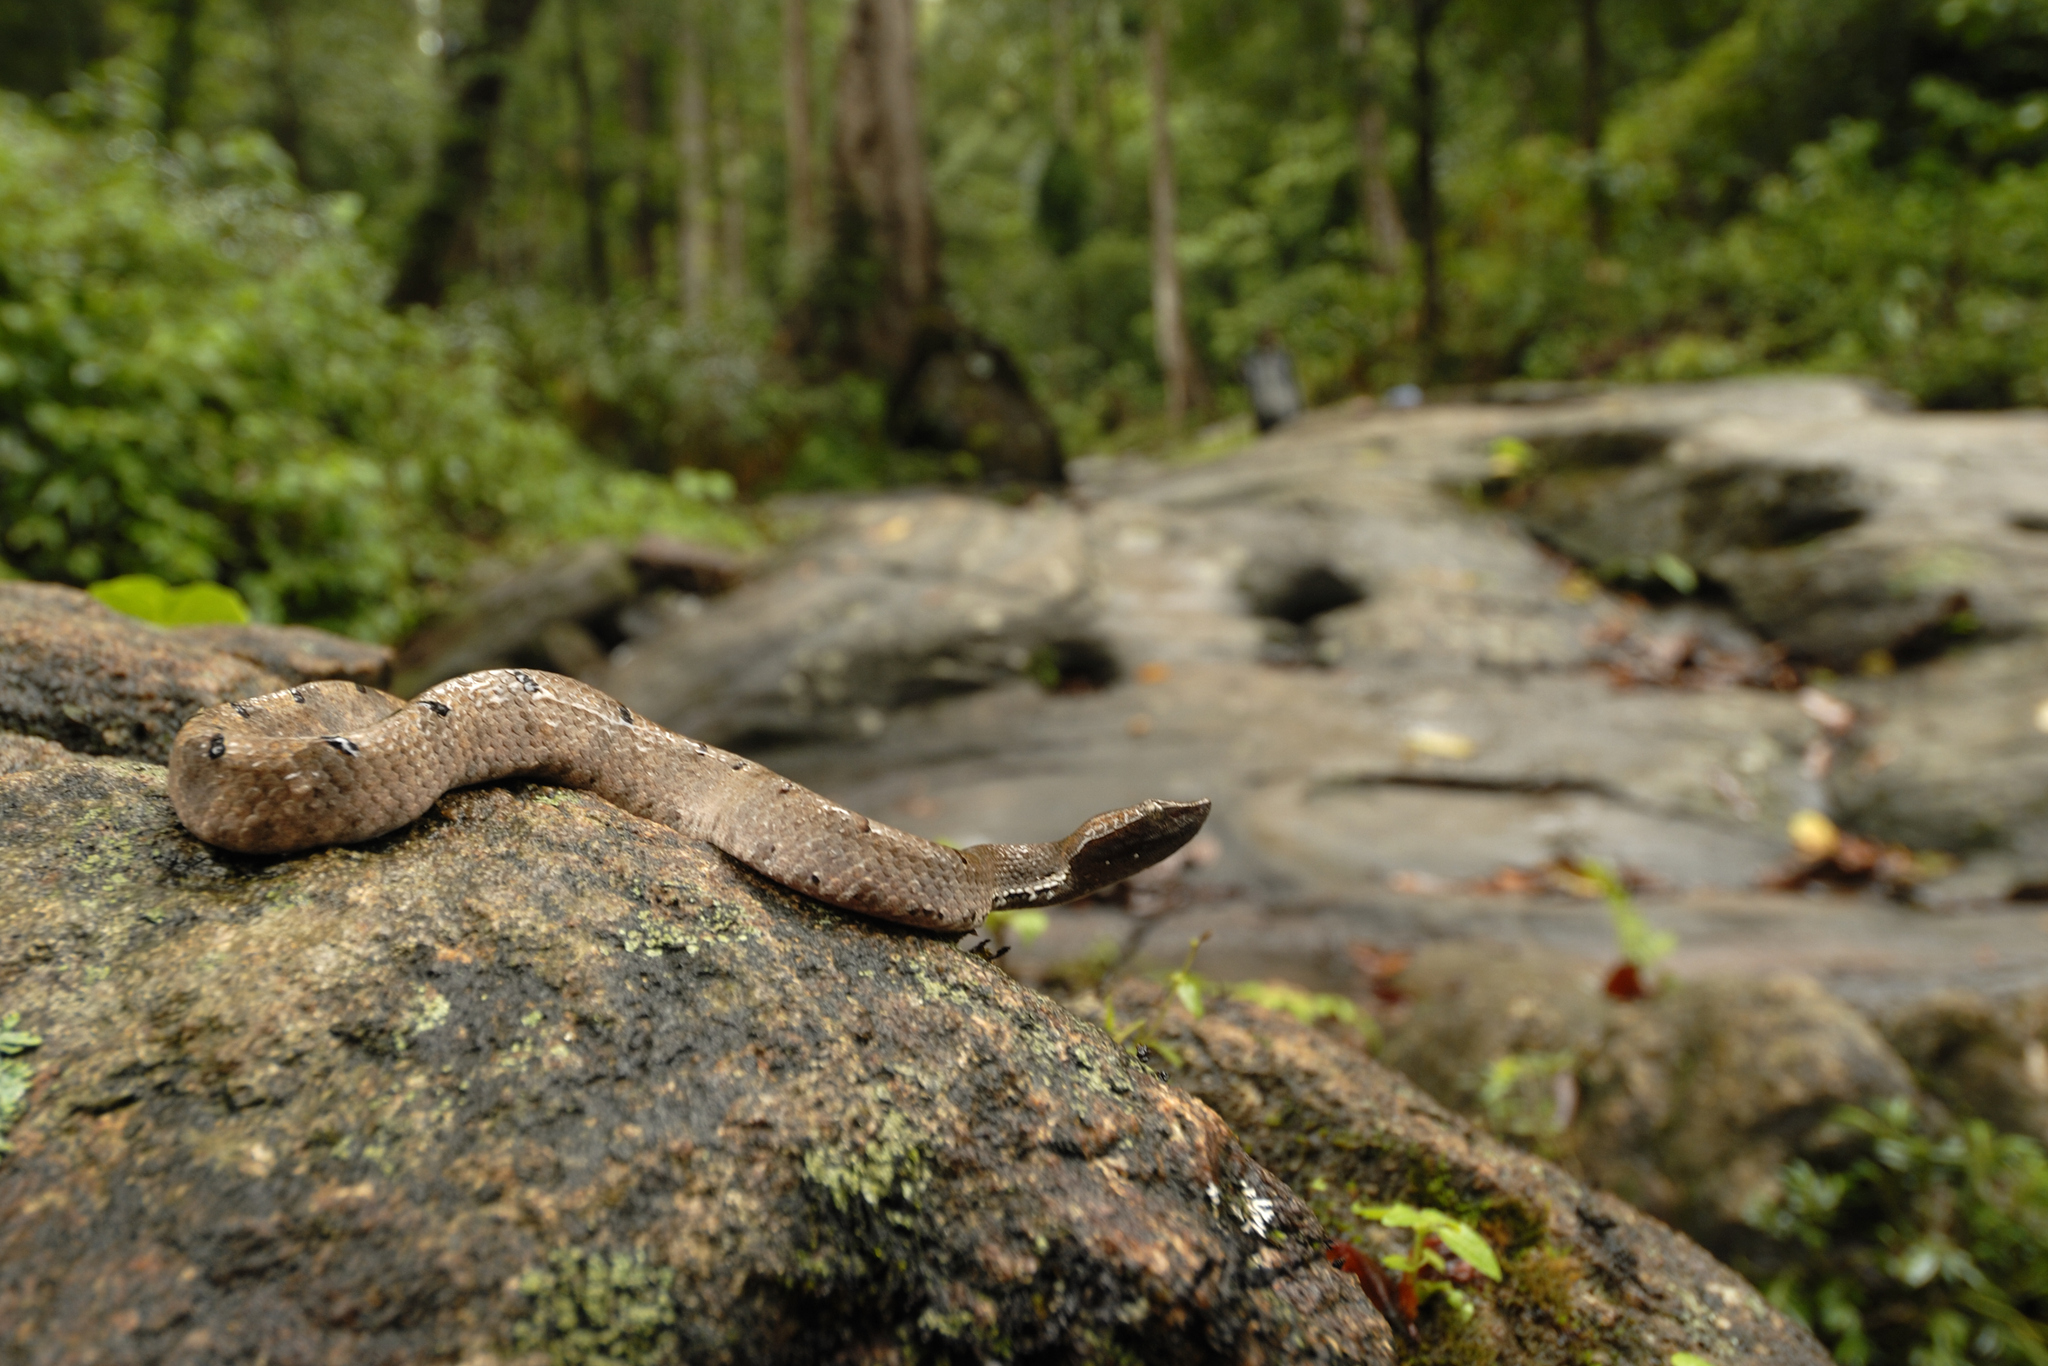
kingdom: Animalia
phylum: Chordata
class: Squamata
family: Viperidae
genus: Hypnale
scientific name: Hypnale hypnale
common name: Hump-nosed moccasin
